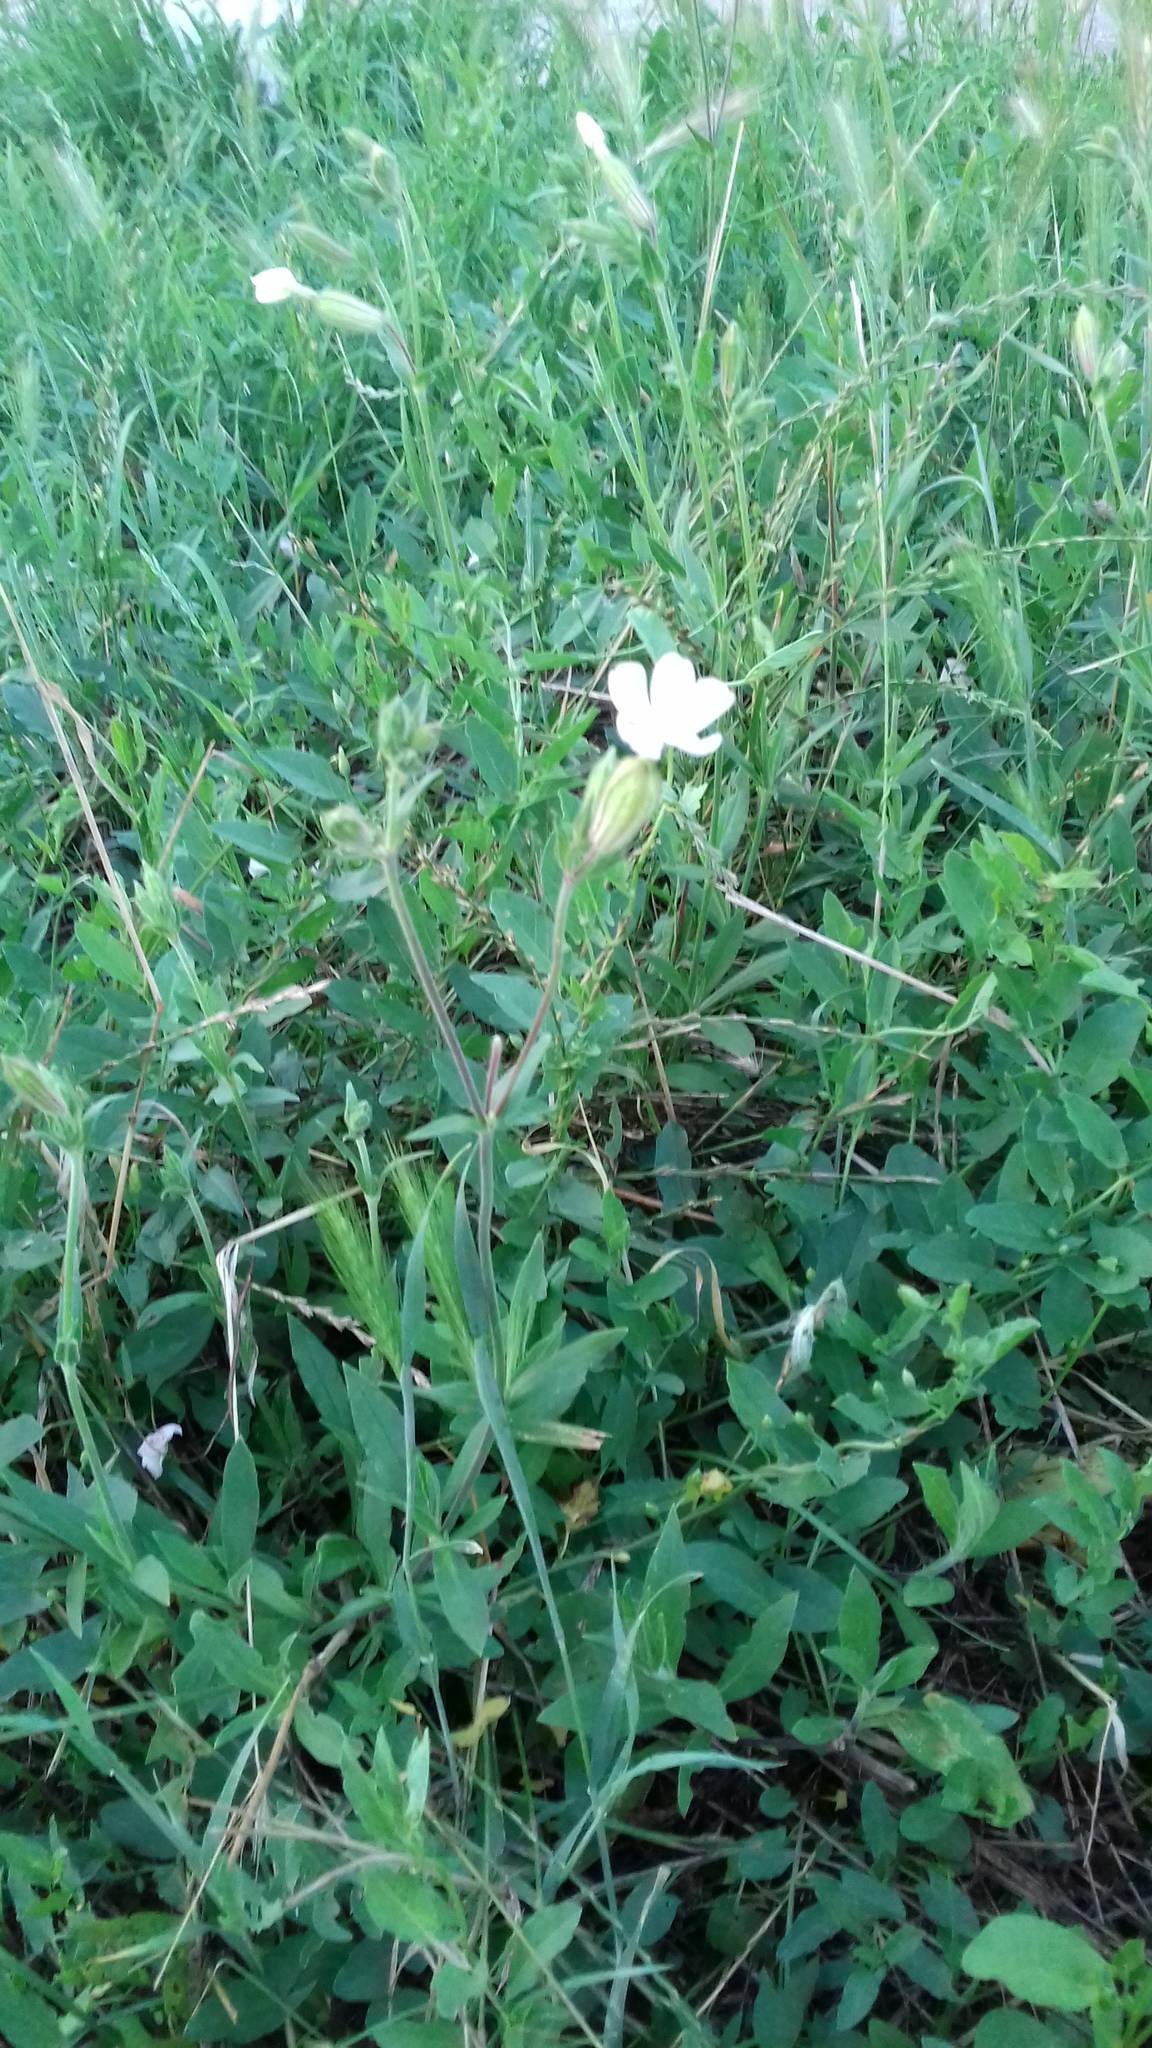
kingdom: Plantae
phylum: Tracheophyta
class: Magnoliopsida
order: Caryophyllales
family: Caryophyllaceae
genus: Silene
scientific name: Silene latifolia
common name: White campion
